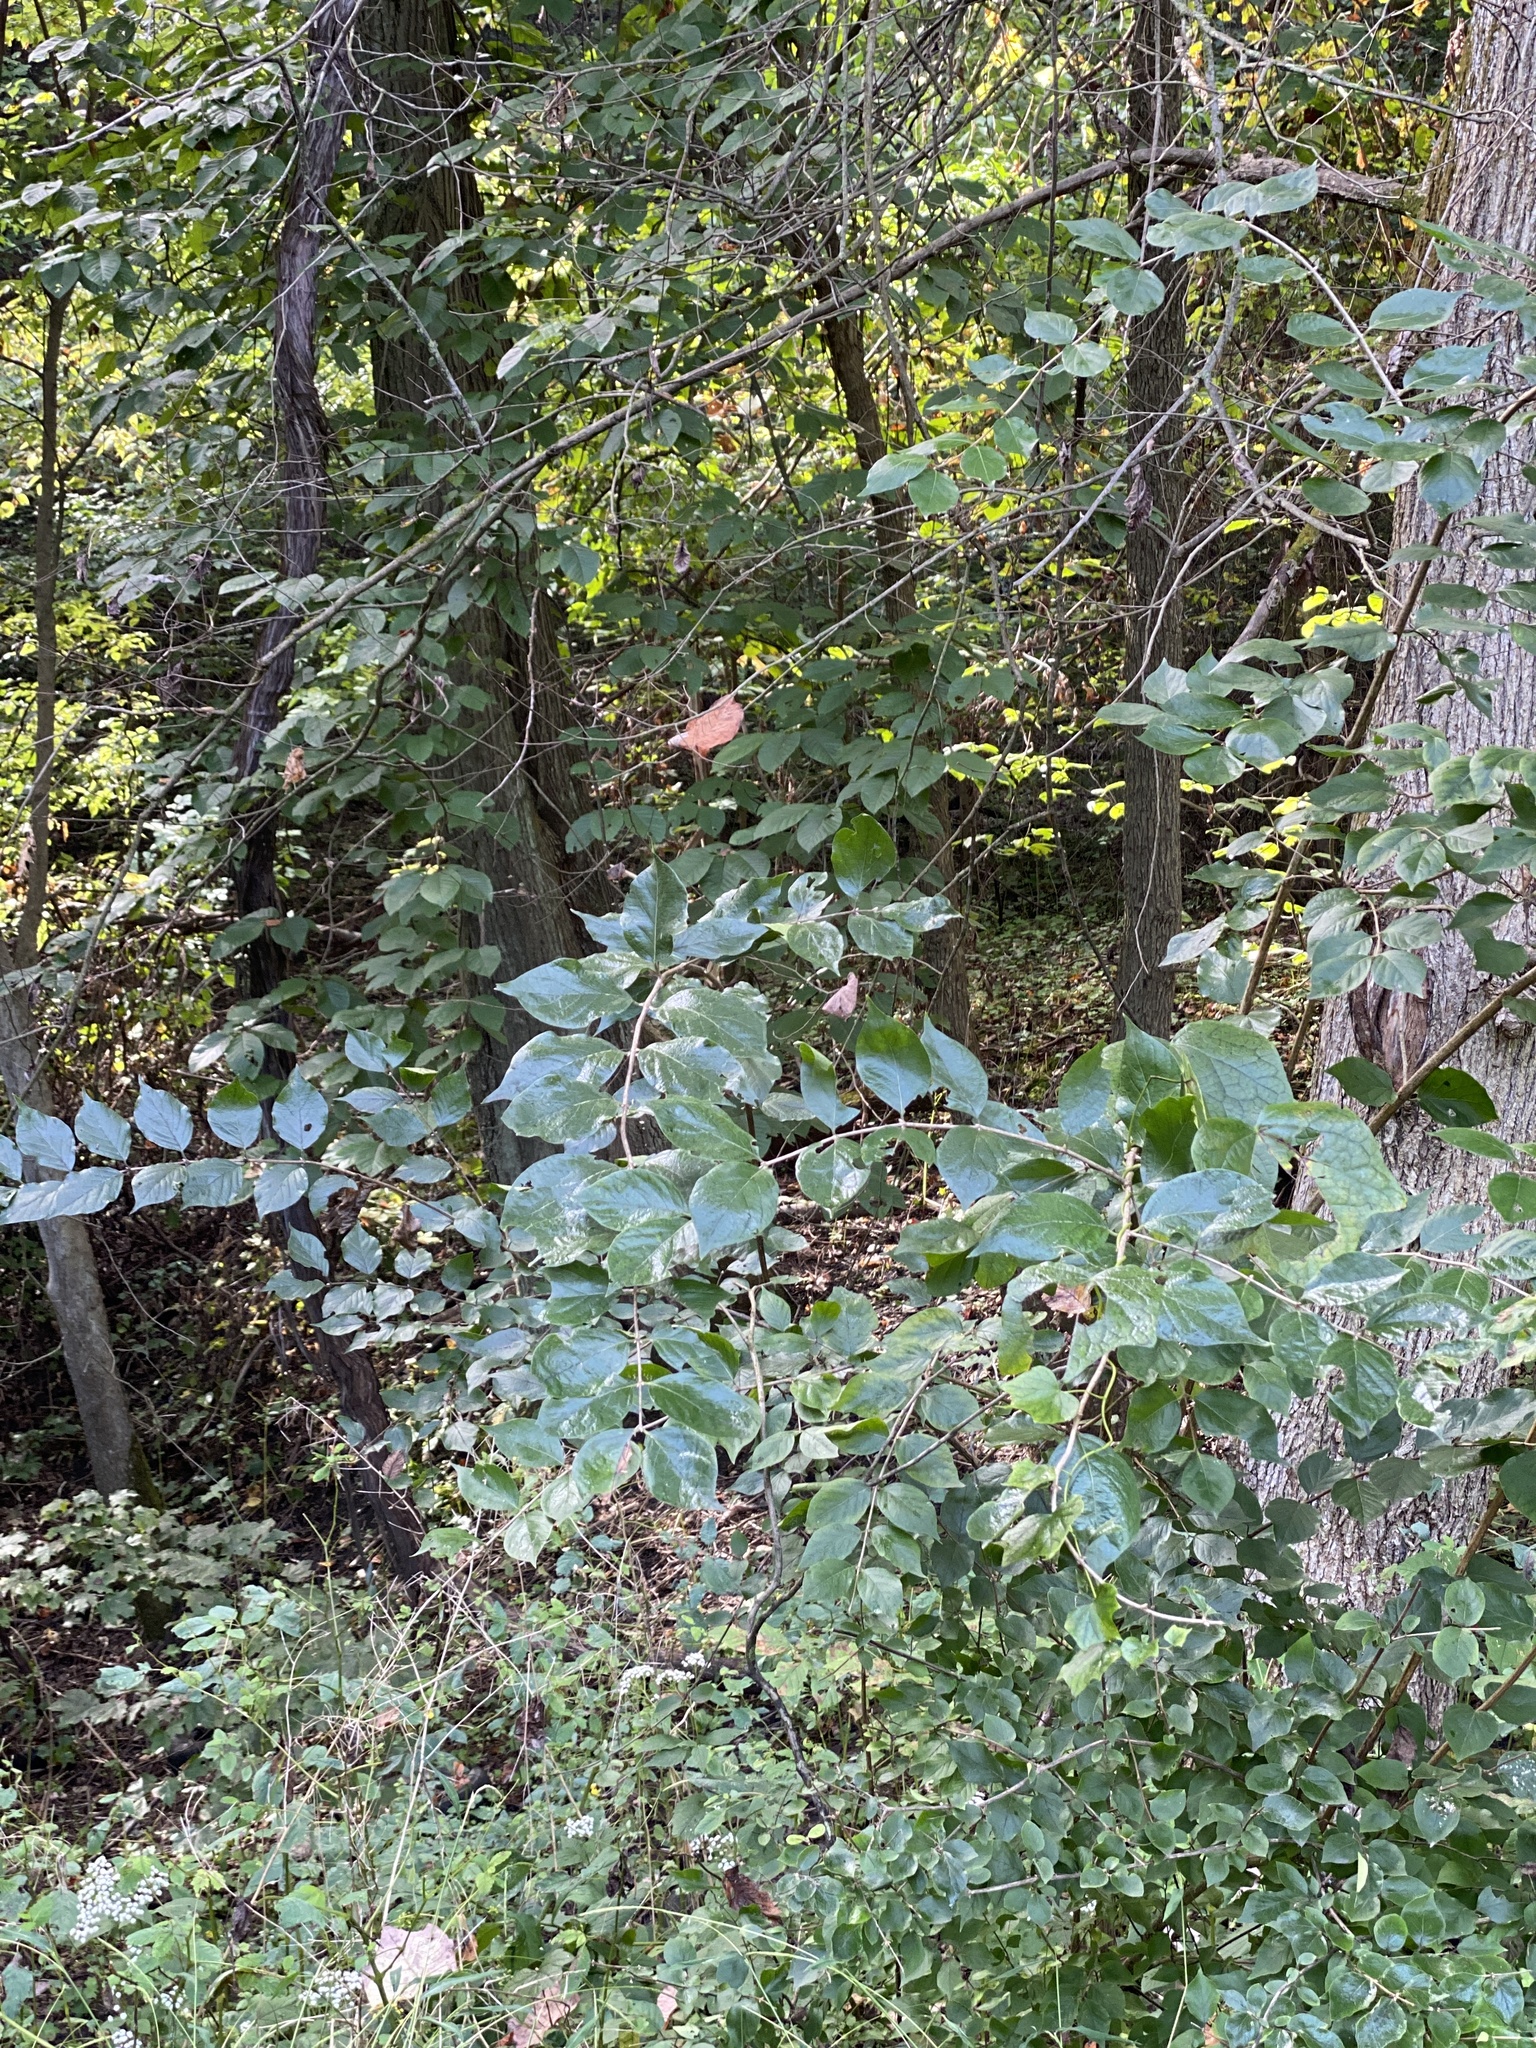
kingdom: Plantae
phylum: Tracheophyta
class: Magnoliopsida
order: Dipsacales
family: Caprifoliaceae
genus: Lonicera
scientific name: Lonicera maackii
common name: Amur honeysuckle
